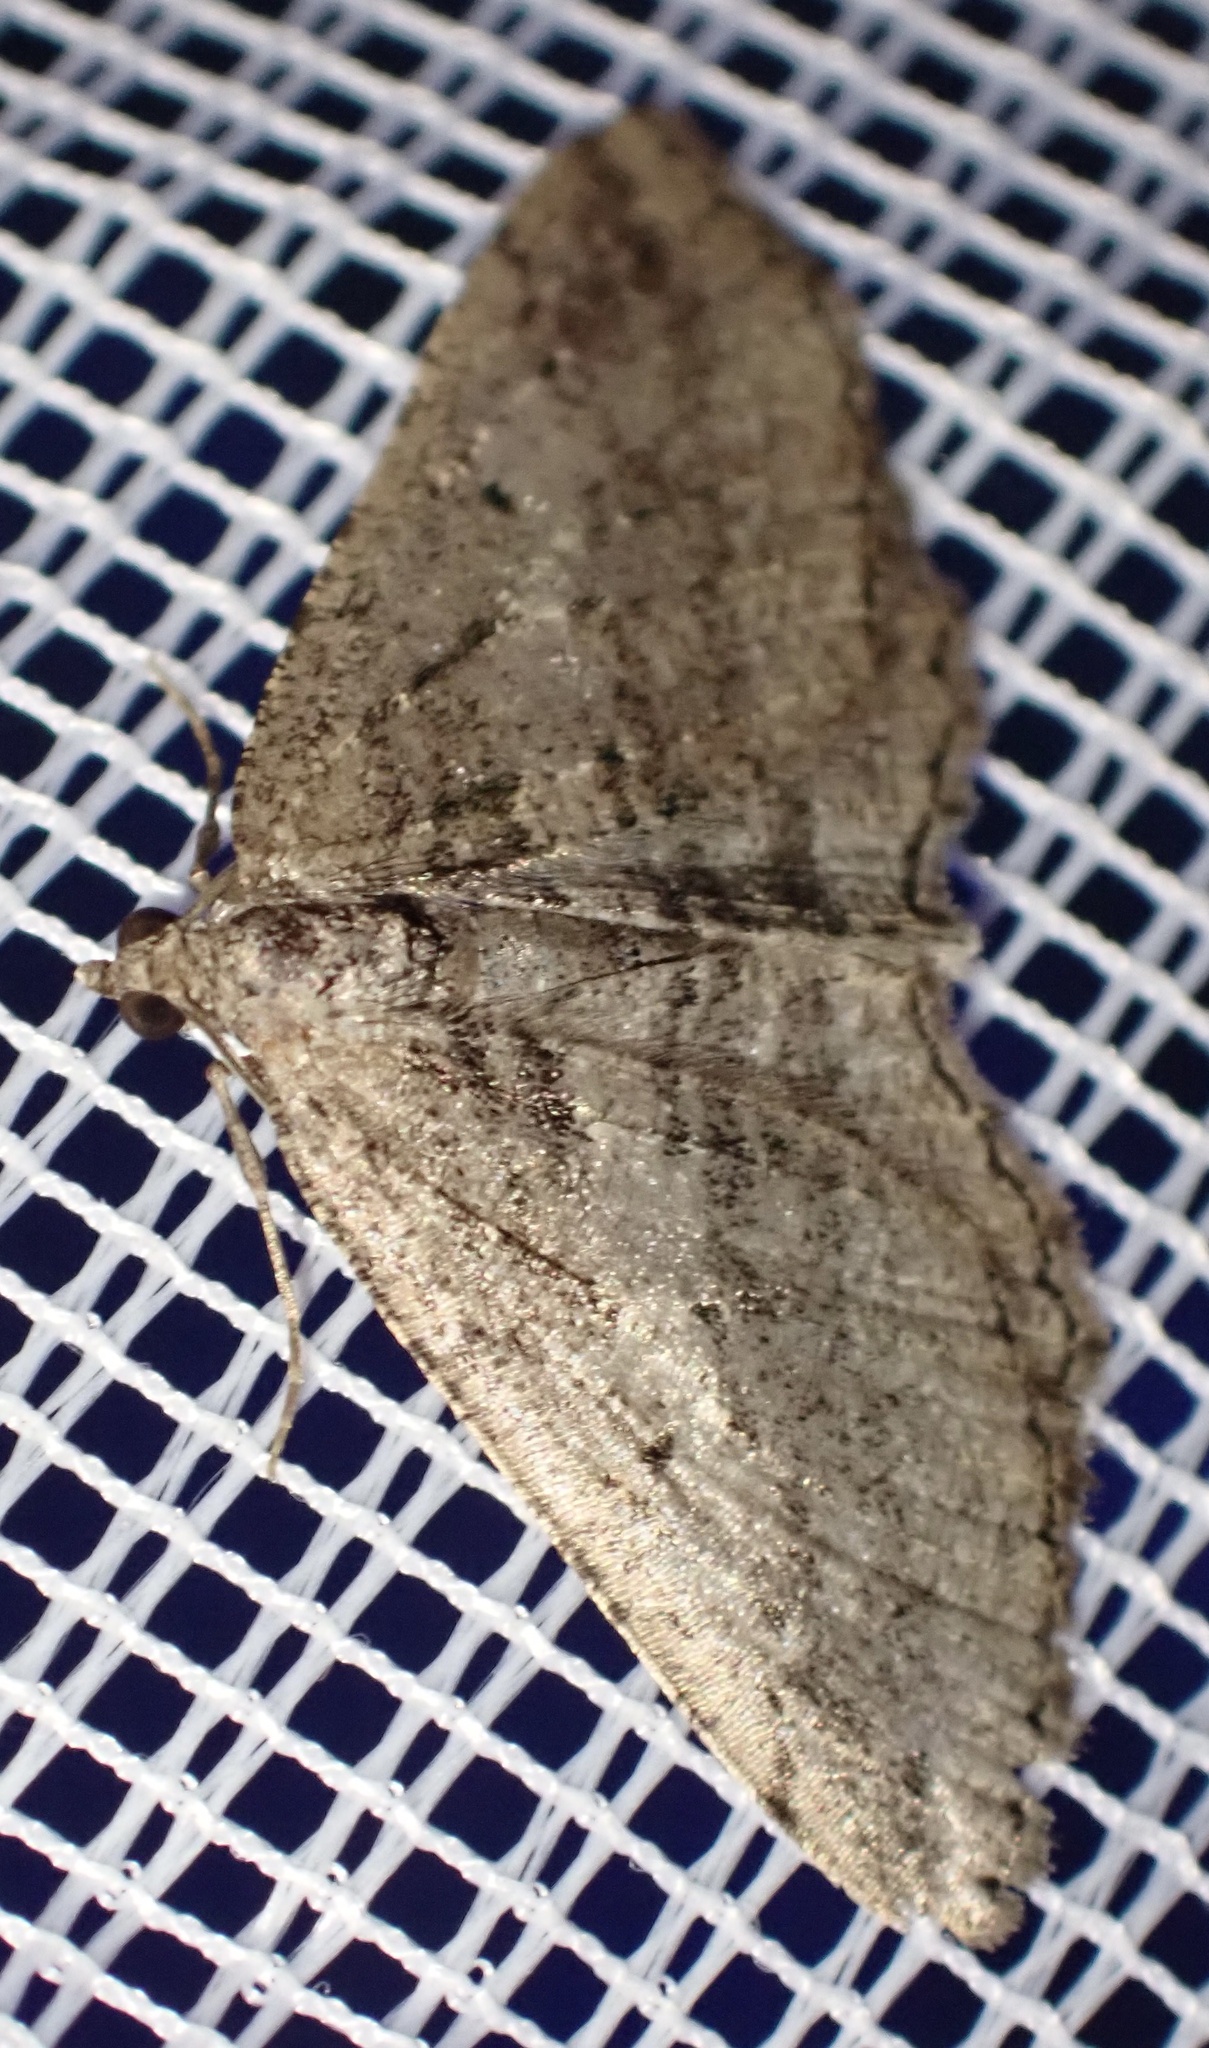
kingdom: Animalia
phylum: Arthropoda
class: Insecta
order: Lepidoptera
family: Geometridae
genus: Rhoptria
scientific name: Rhoptria asperaria
